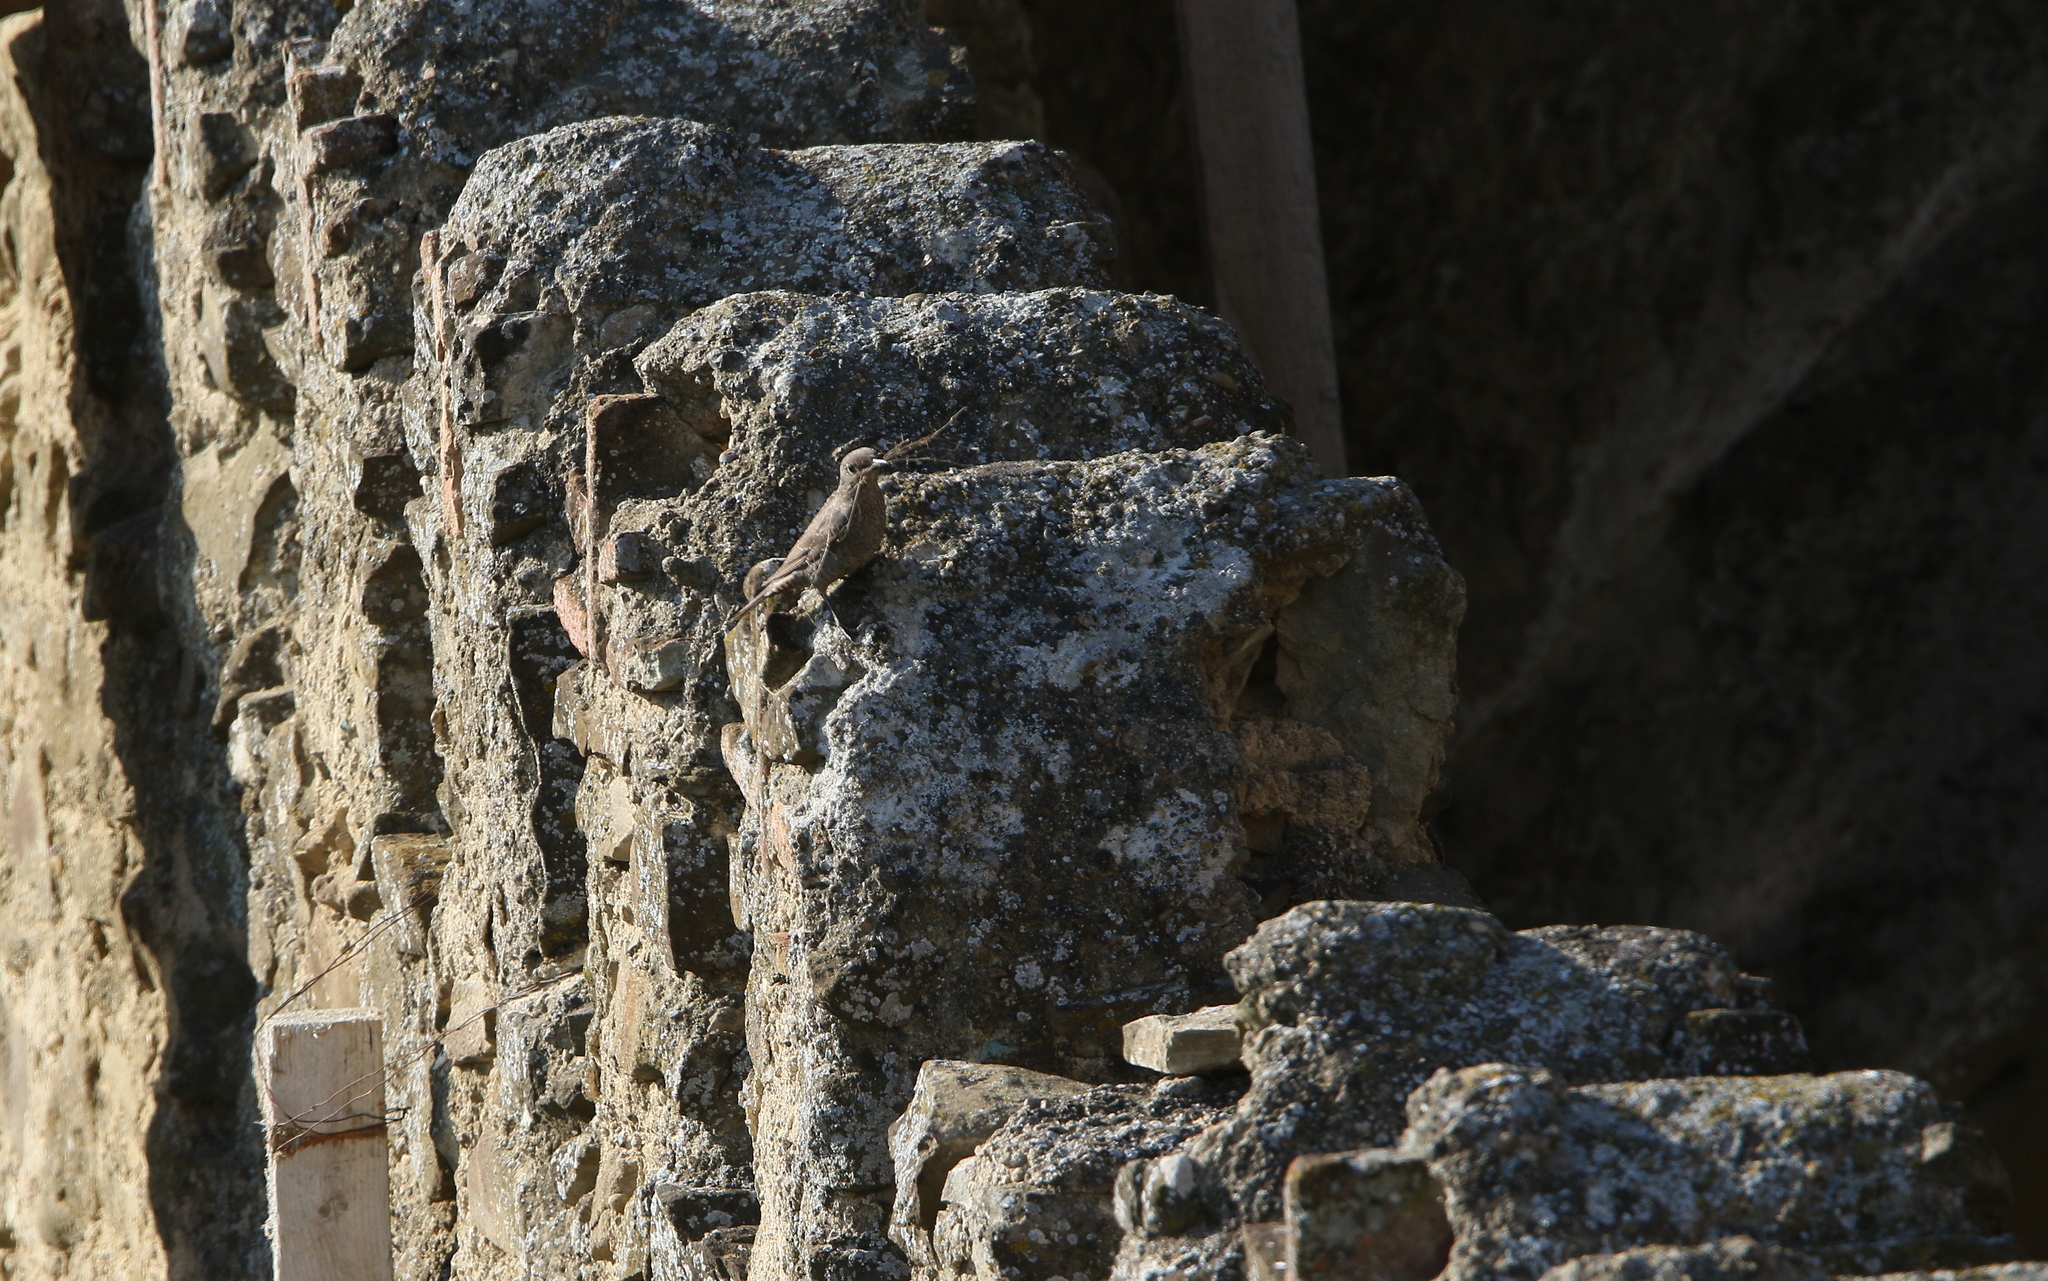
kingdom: Animalia
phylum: Chordata
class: Aves
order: Passeriformes
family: Muscicapidae
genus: Monticola
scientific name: Monticola solitarius
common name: Blue rock thrush
